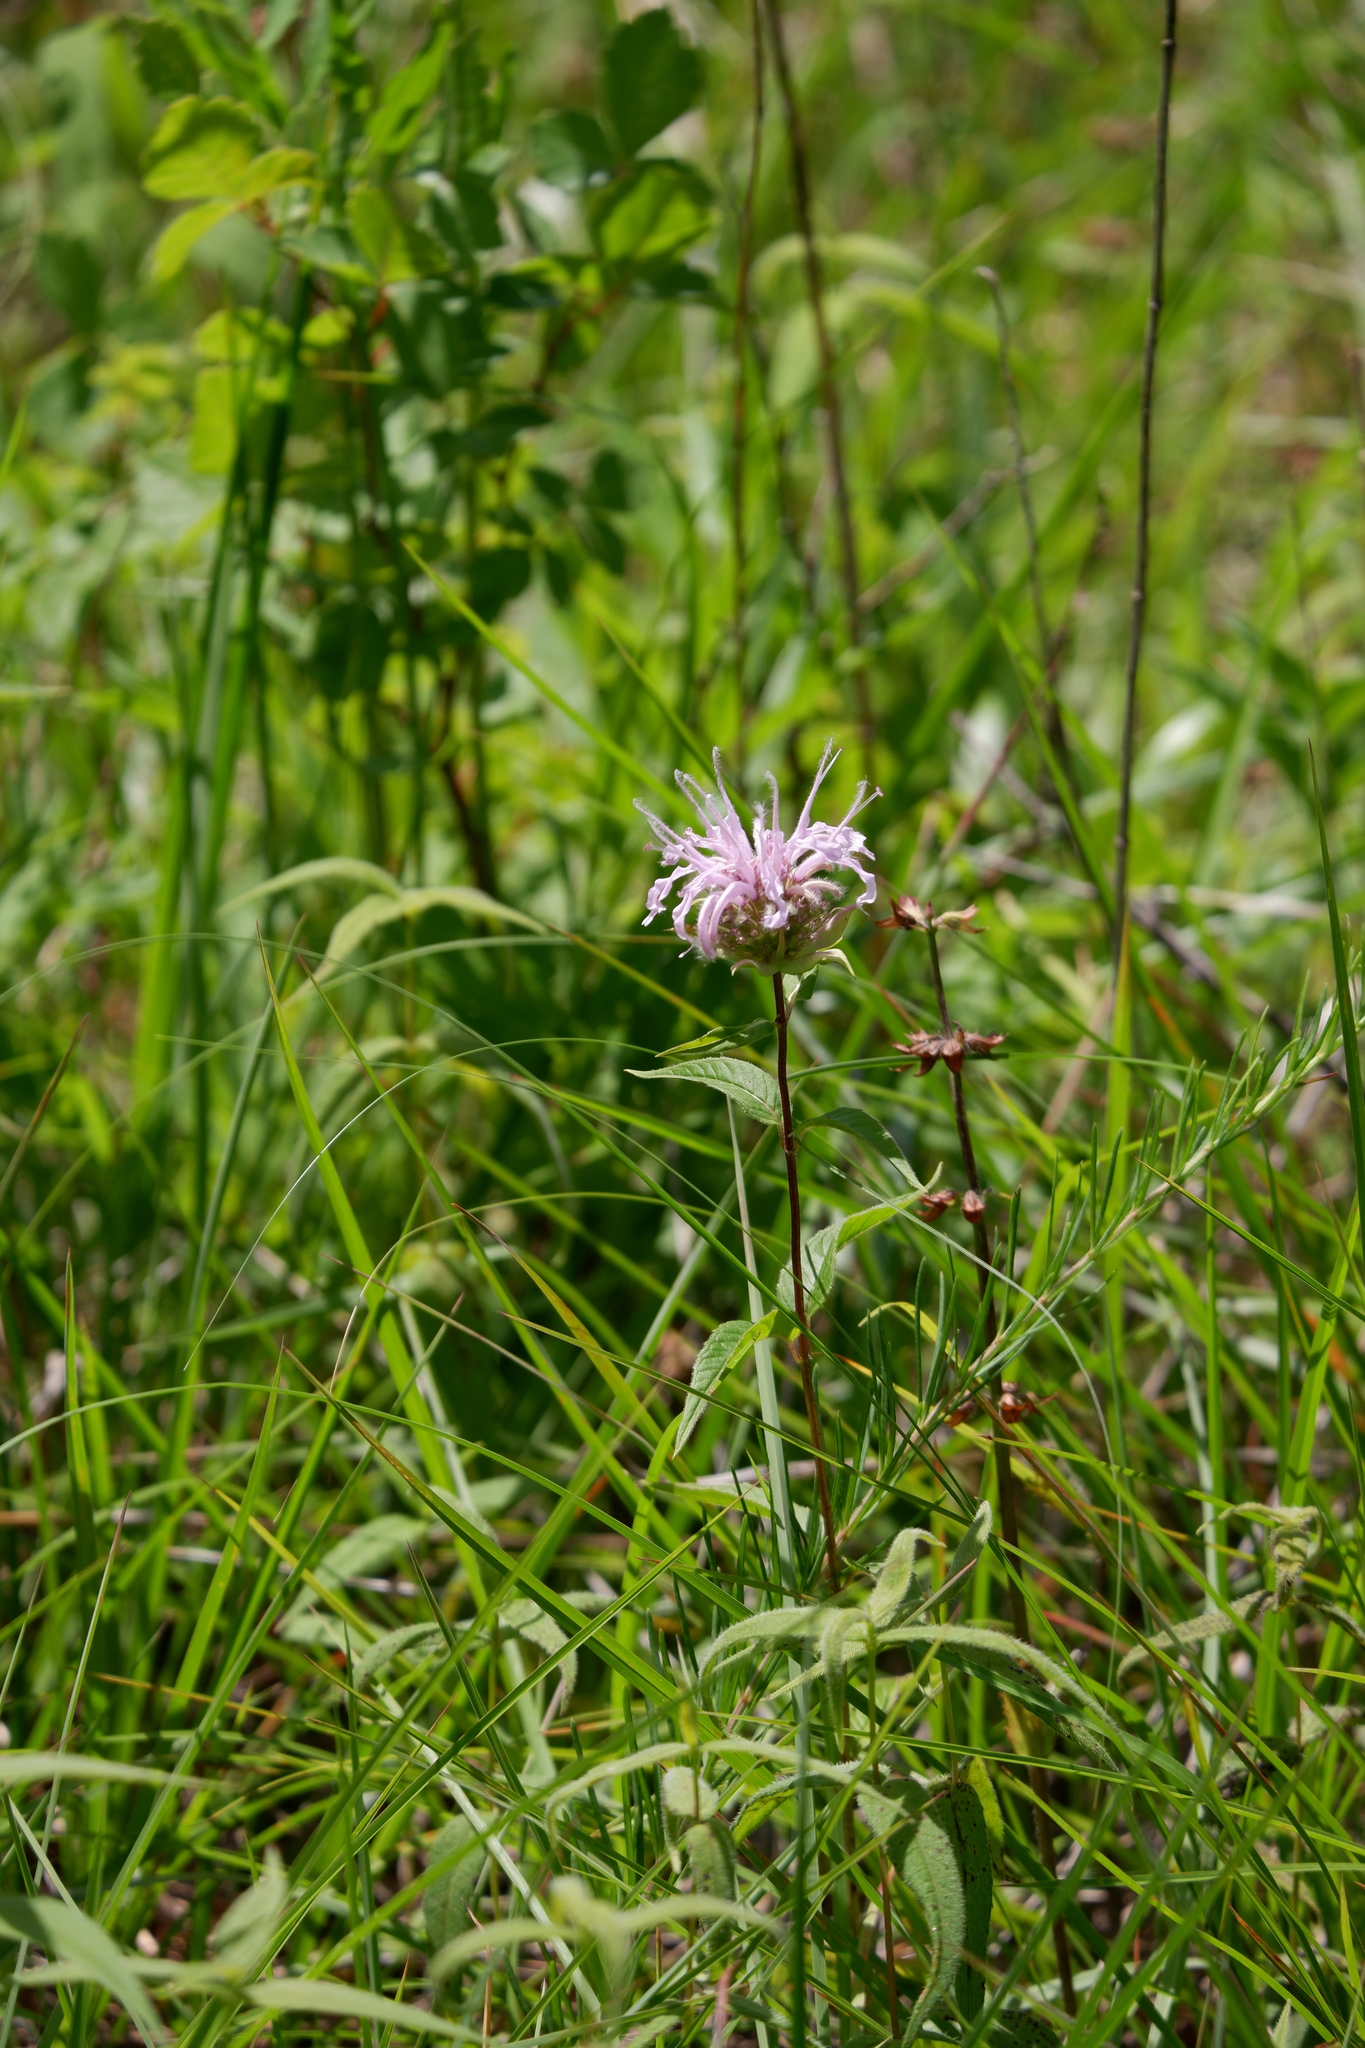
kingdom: Plantae
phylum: Tracheophyta
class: Magnoliopsida
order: Lamiales
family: Lamiaceae
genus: Monarda
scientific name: Monarda bradburiana
